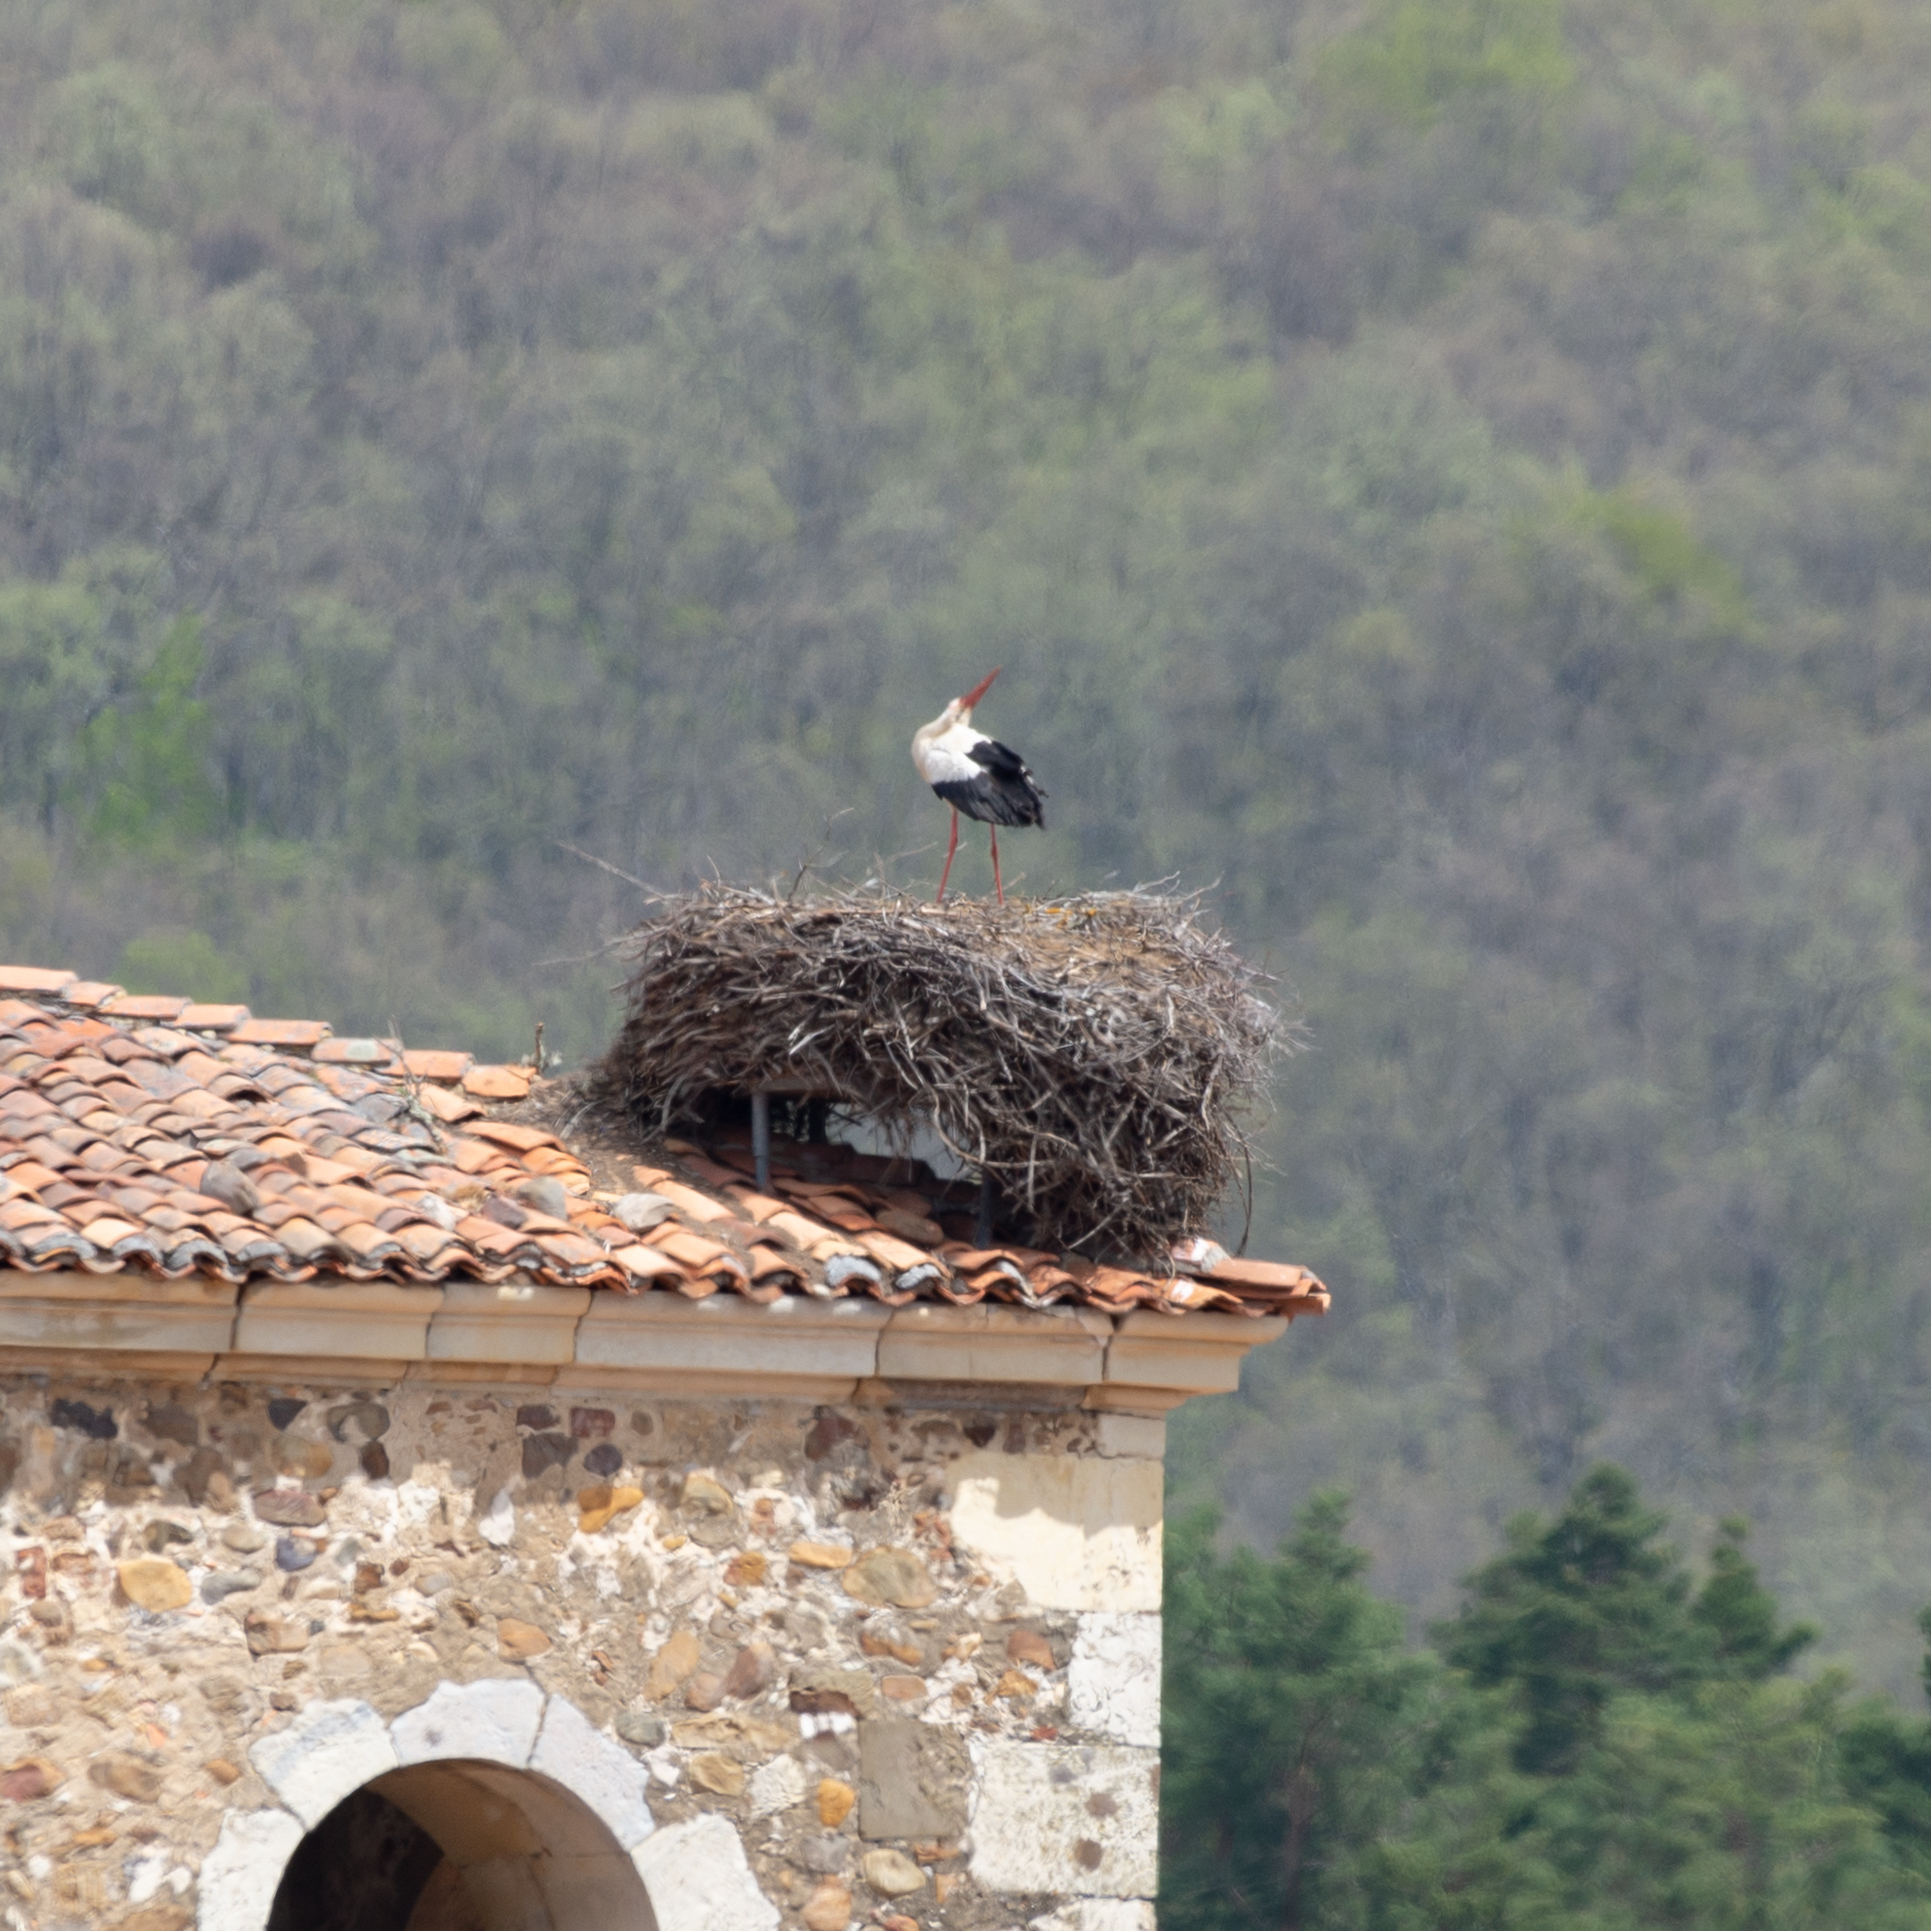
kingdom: Animalia
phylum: Chordata
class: Aves
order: Ciconiiformes
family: Ciconiidae
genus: Ciconia
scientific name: Ciconia ciconia
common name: White stork
